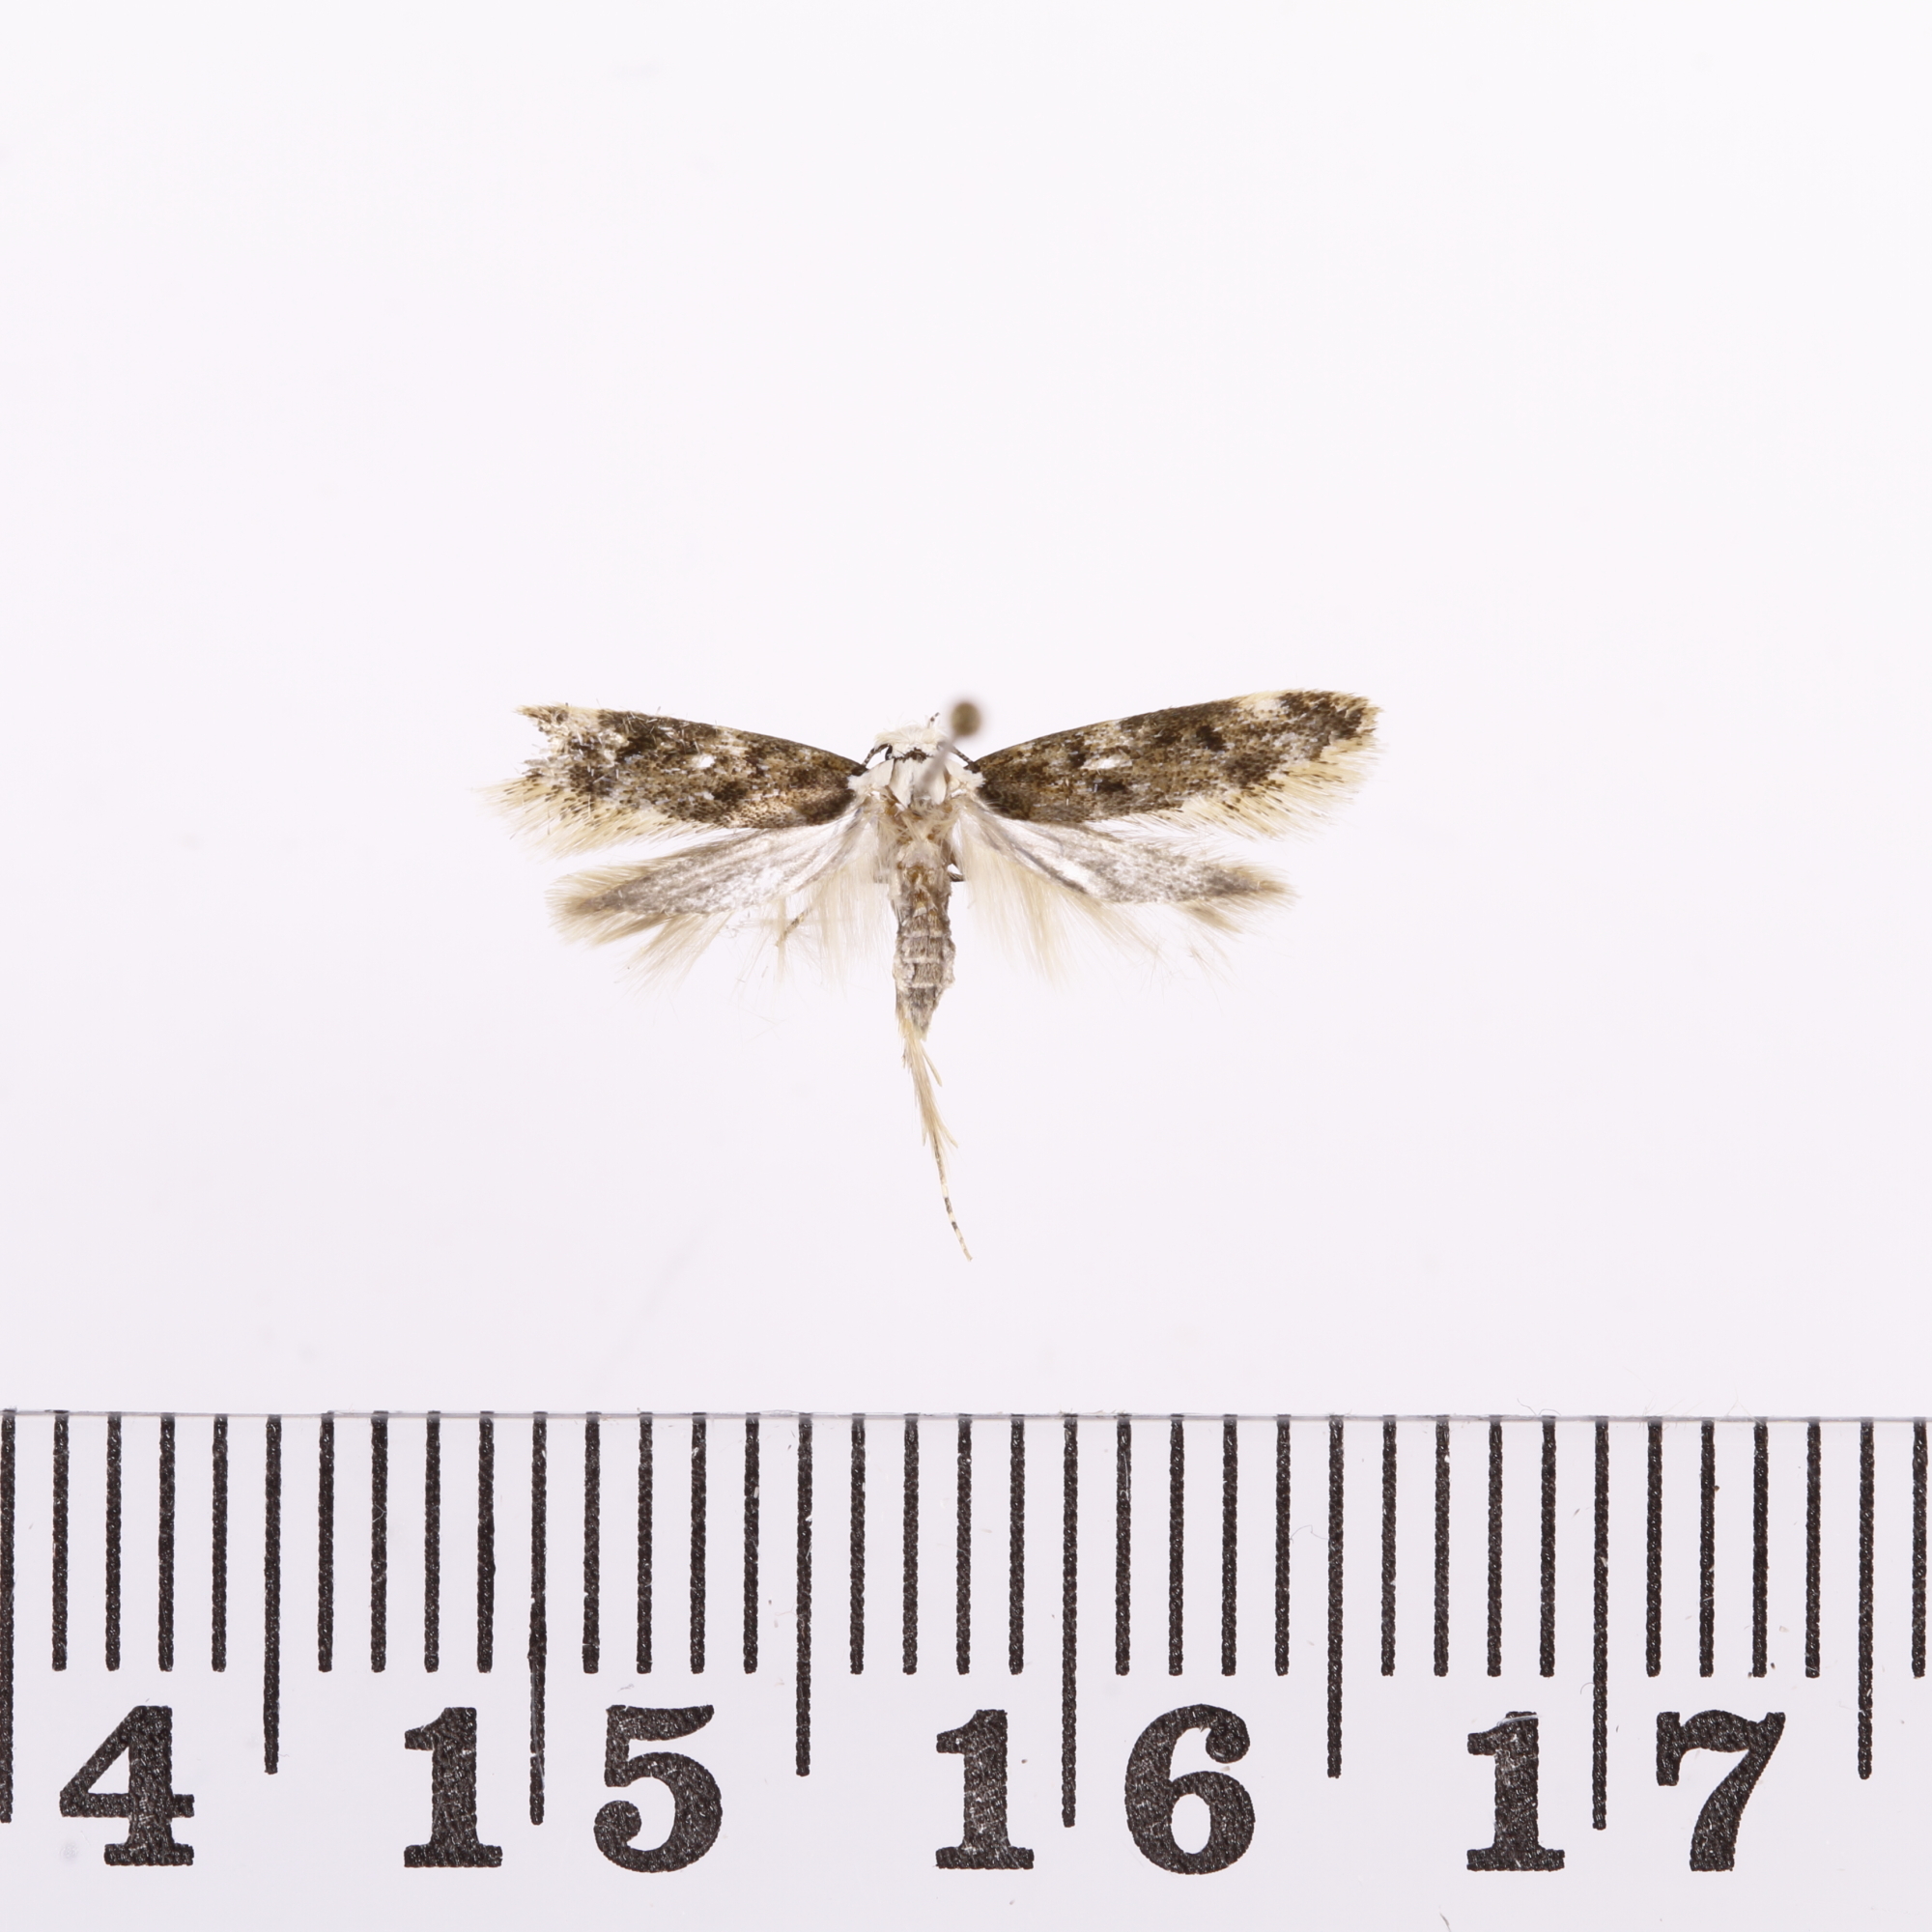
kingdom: Animalia
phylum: Arthropoda
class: Insecta
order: Lepidoptera
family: Oecophoridae
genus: Endrosis
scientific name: Endrosis sarcitrella
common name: White-shouldered house moth
